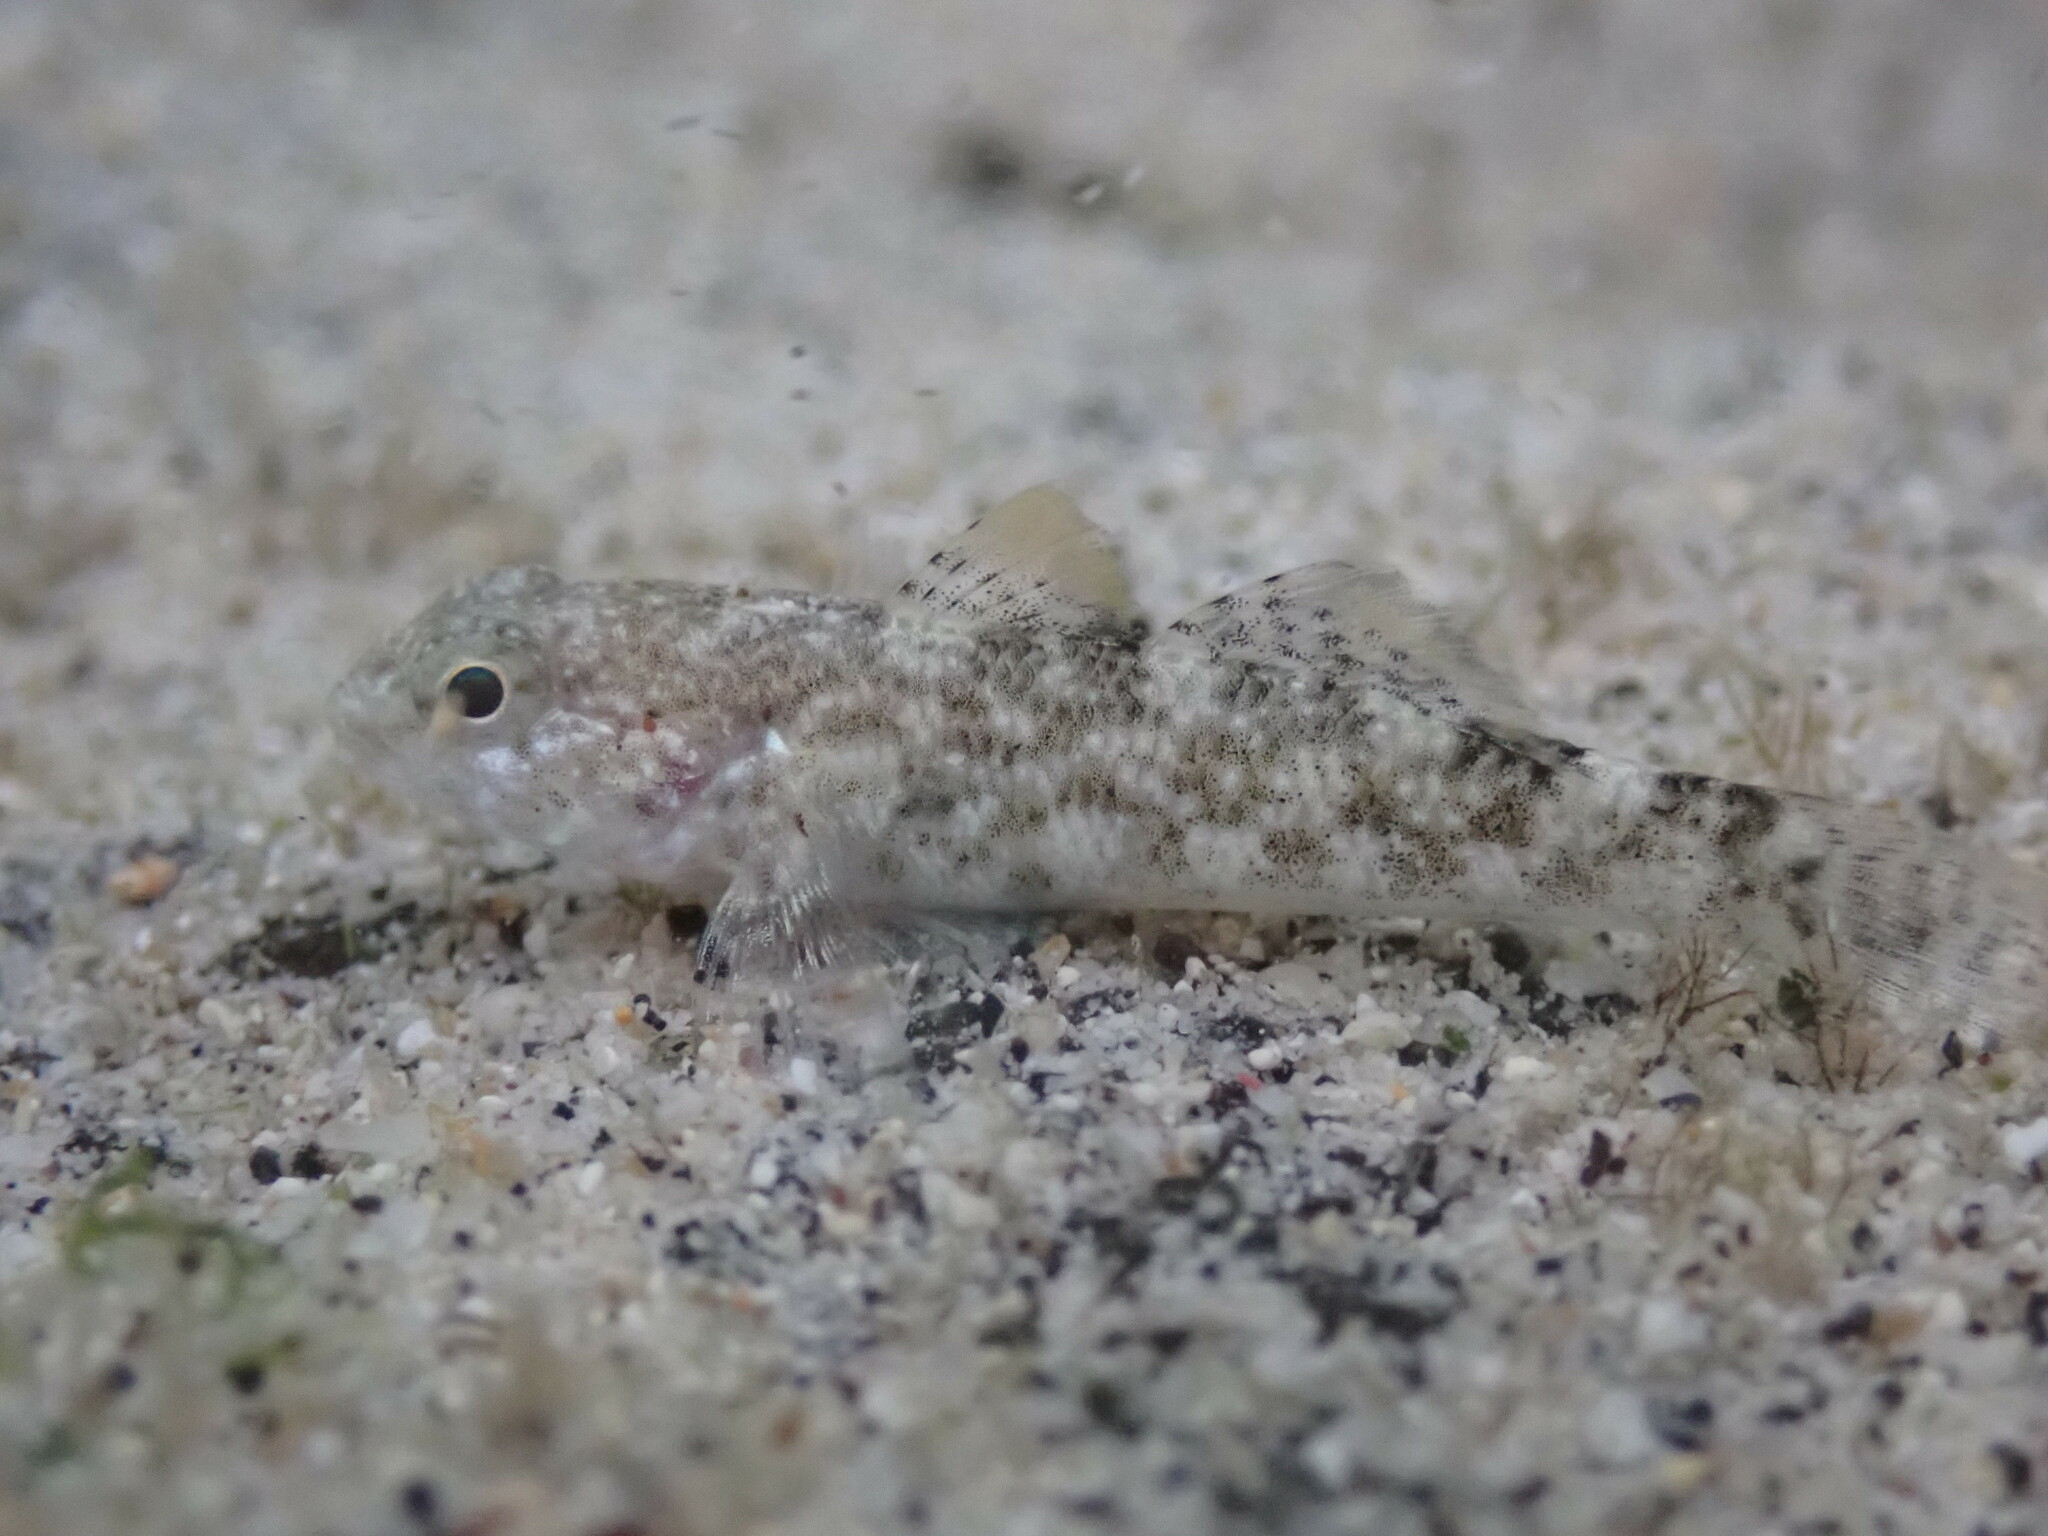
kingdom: Animalia
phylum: Chordata
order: Perciformes
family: Gobiidae
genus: Bathygobius
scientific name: Bathygobius coalitus
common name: Whitespotted goby
